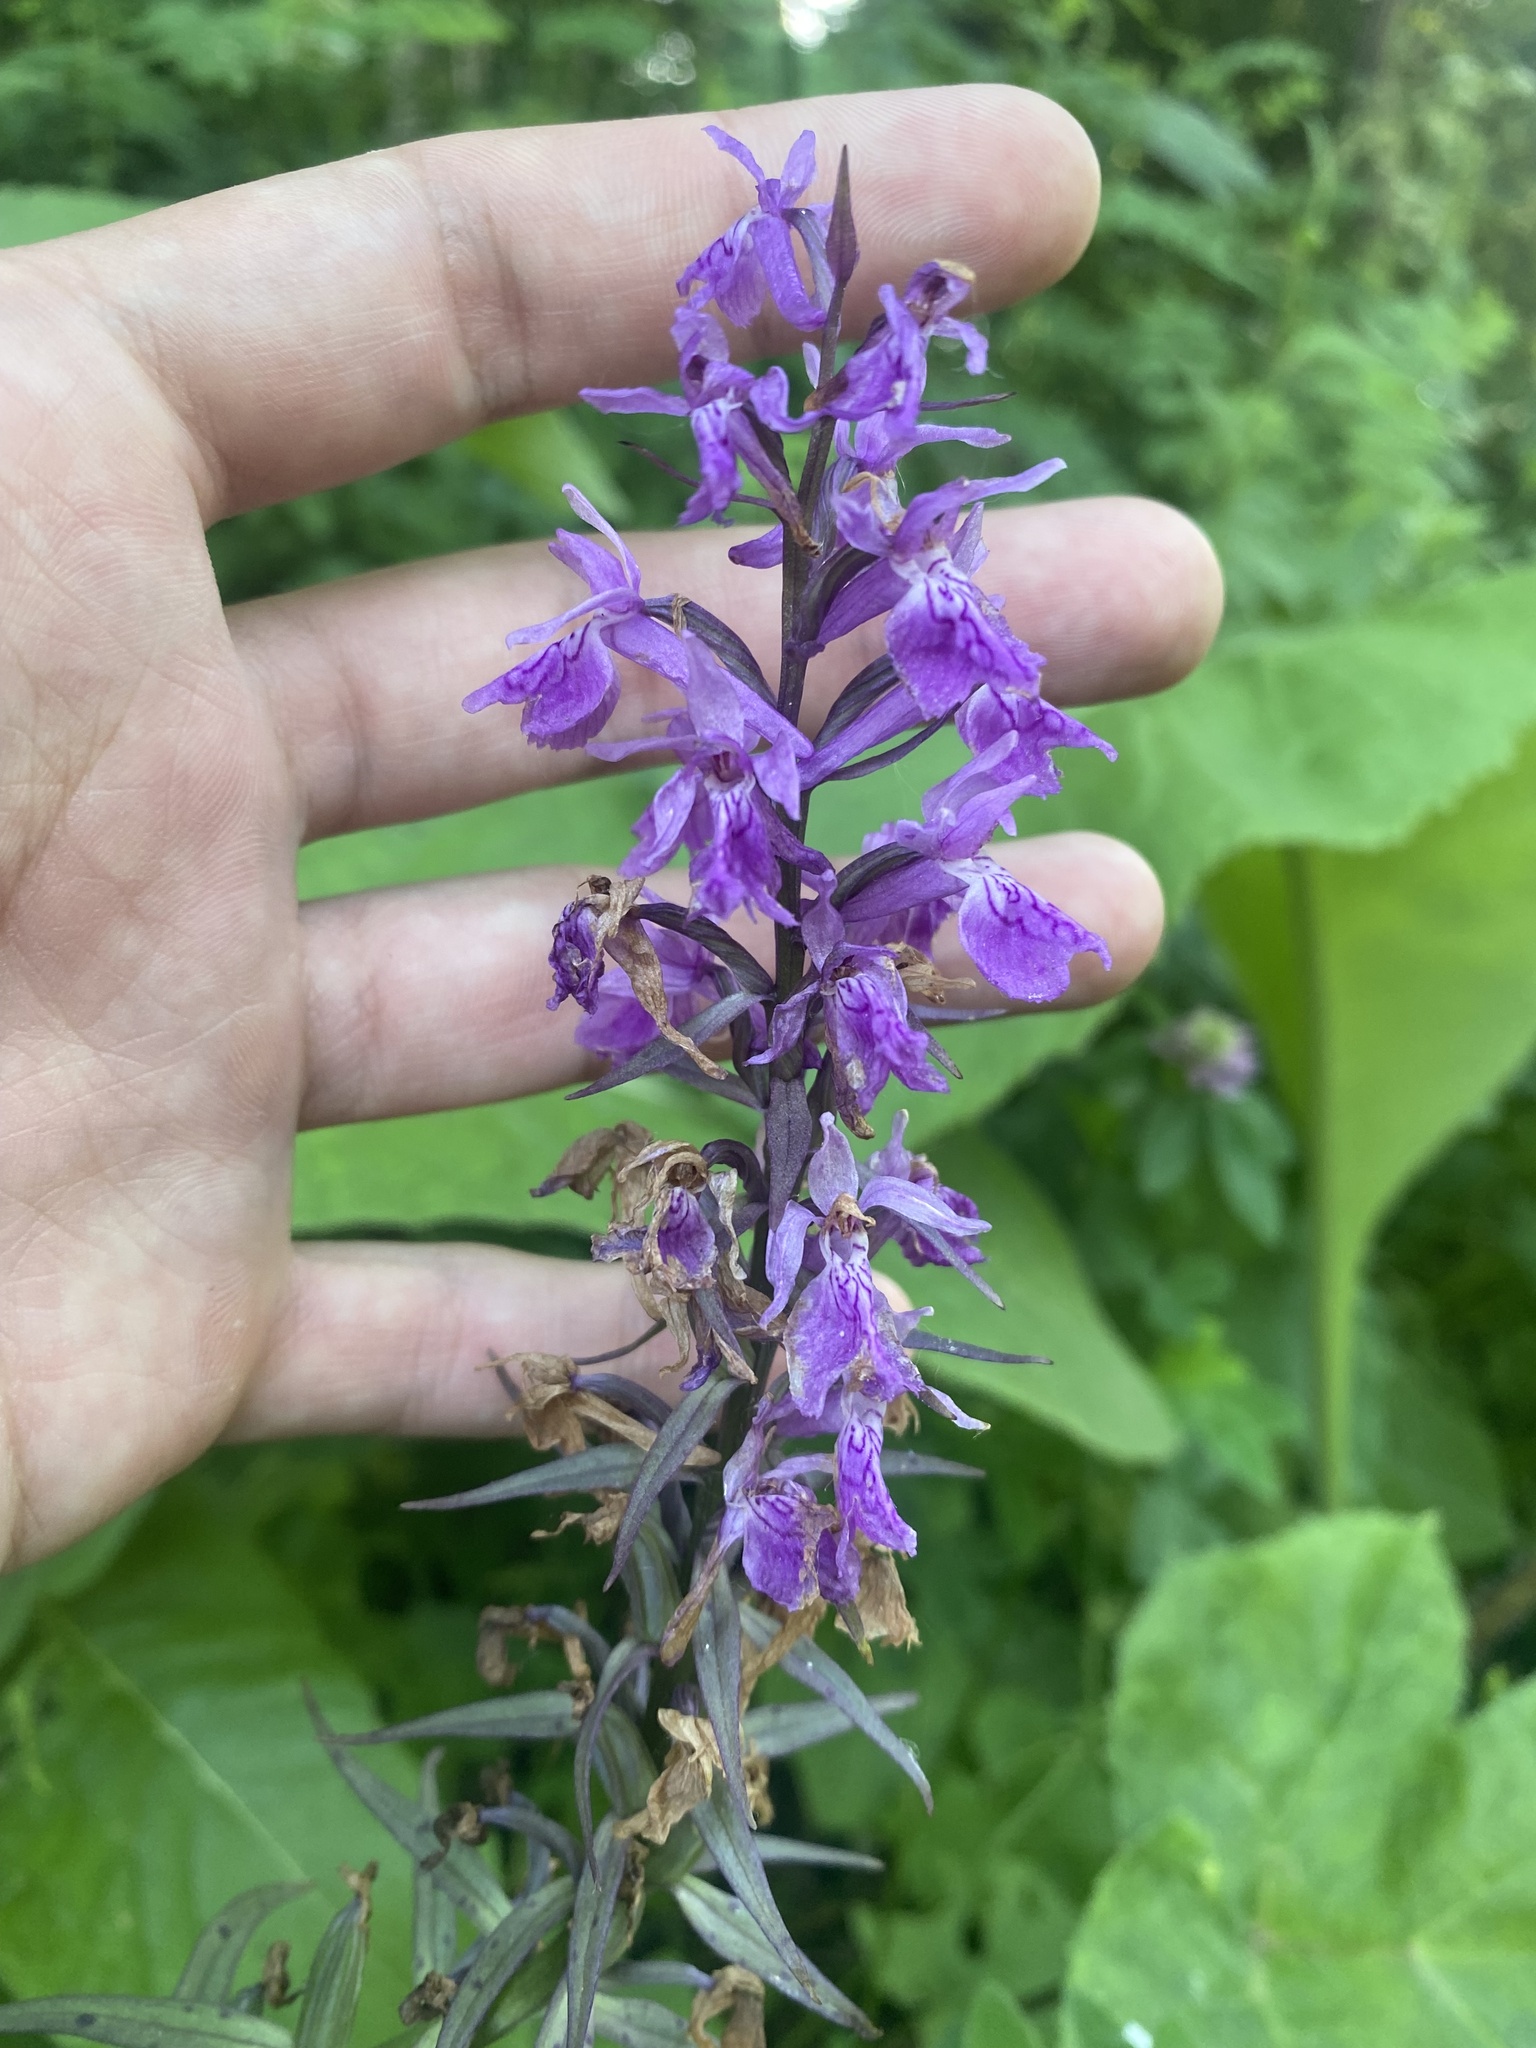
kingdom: Plantae
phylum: Tracheophyta
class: Liliopsida
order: Asparagales
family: Orchidaceae
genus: Dactylorhiza
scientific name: Dactylorhiza urvilleana
